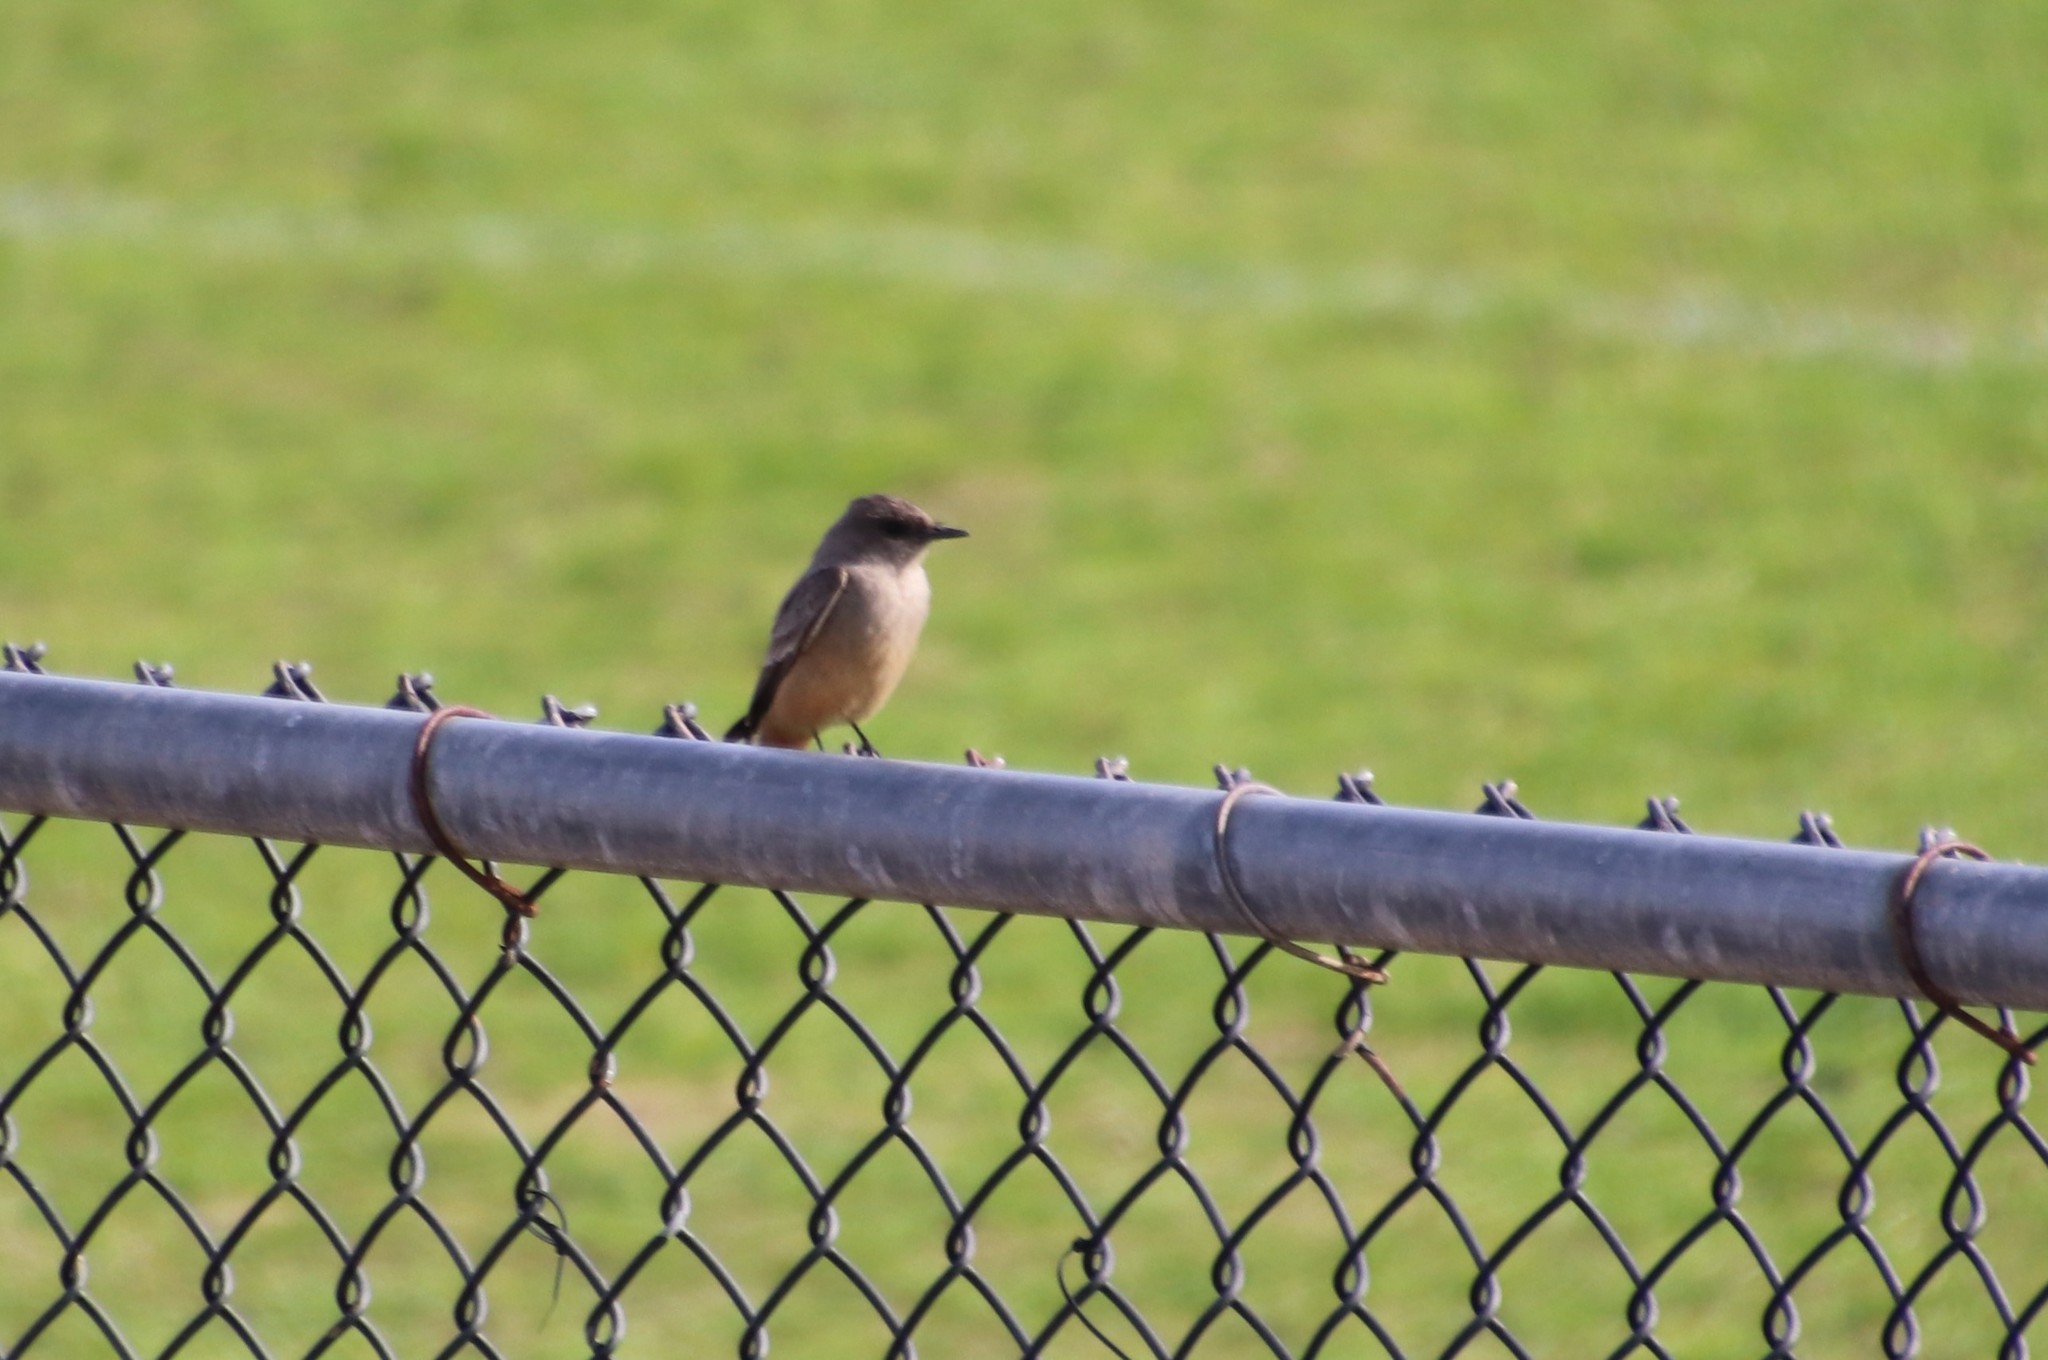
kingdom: Animalia
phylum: Chordata
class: Aves
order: Passeriformes
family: Tyrannidae
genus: Sayornis
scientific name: Sayornis saya
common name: Say's phoebe
